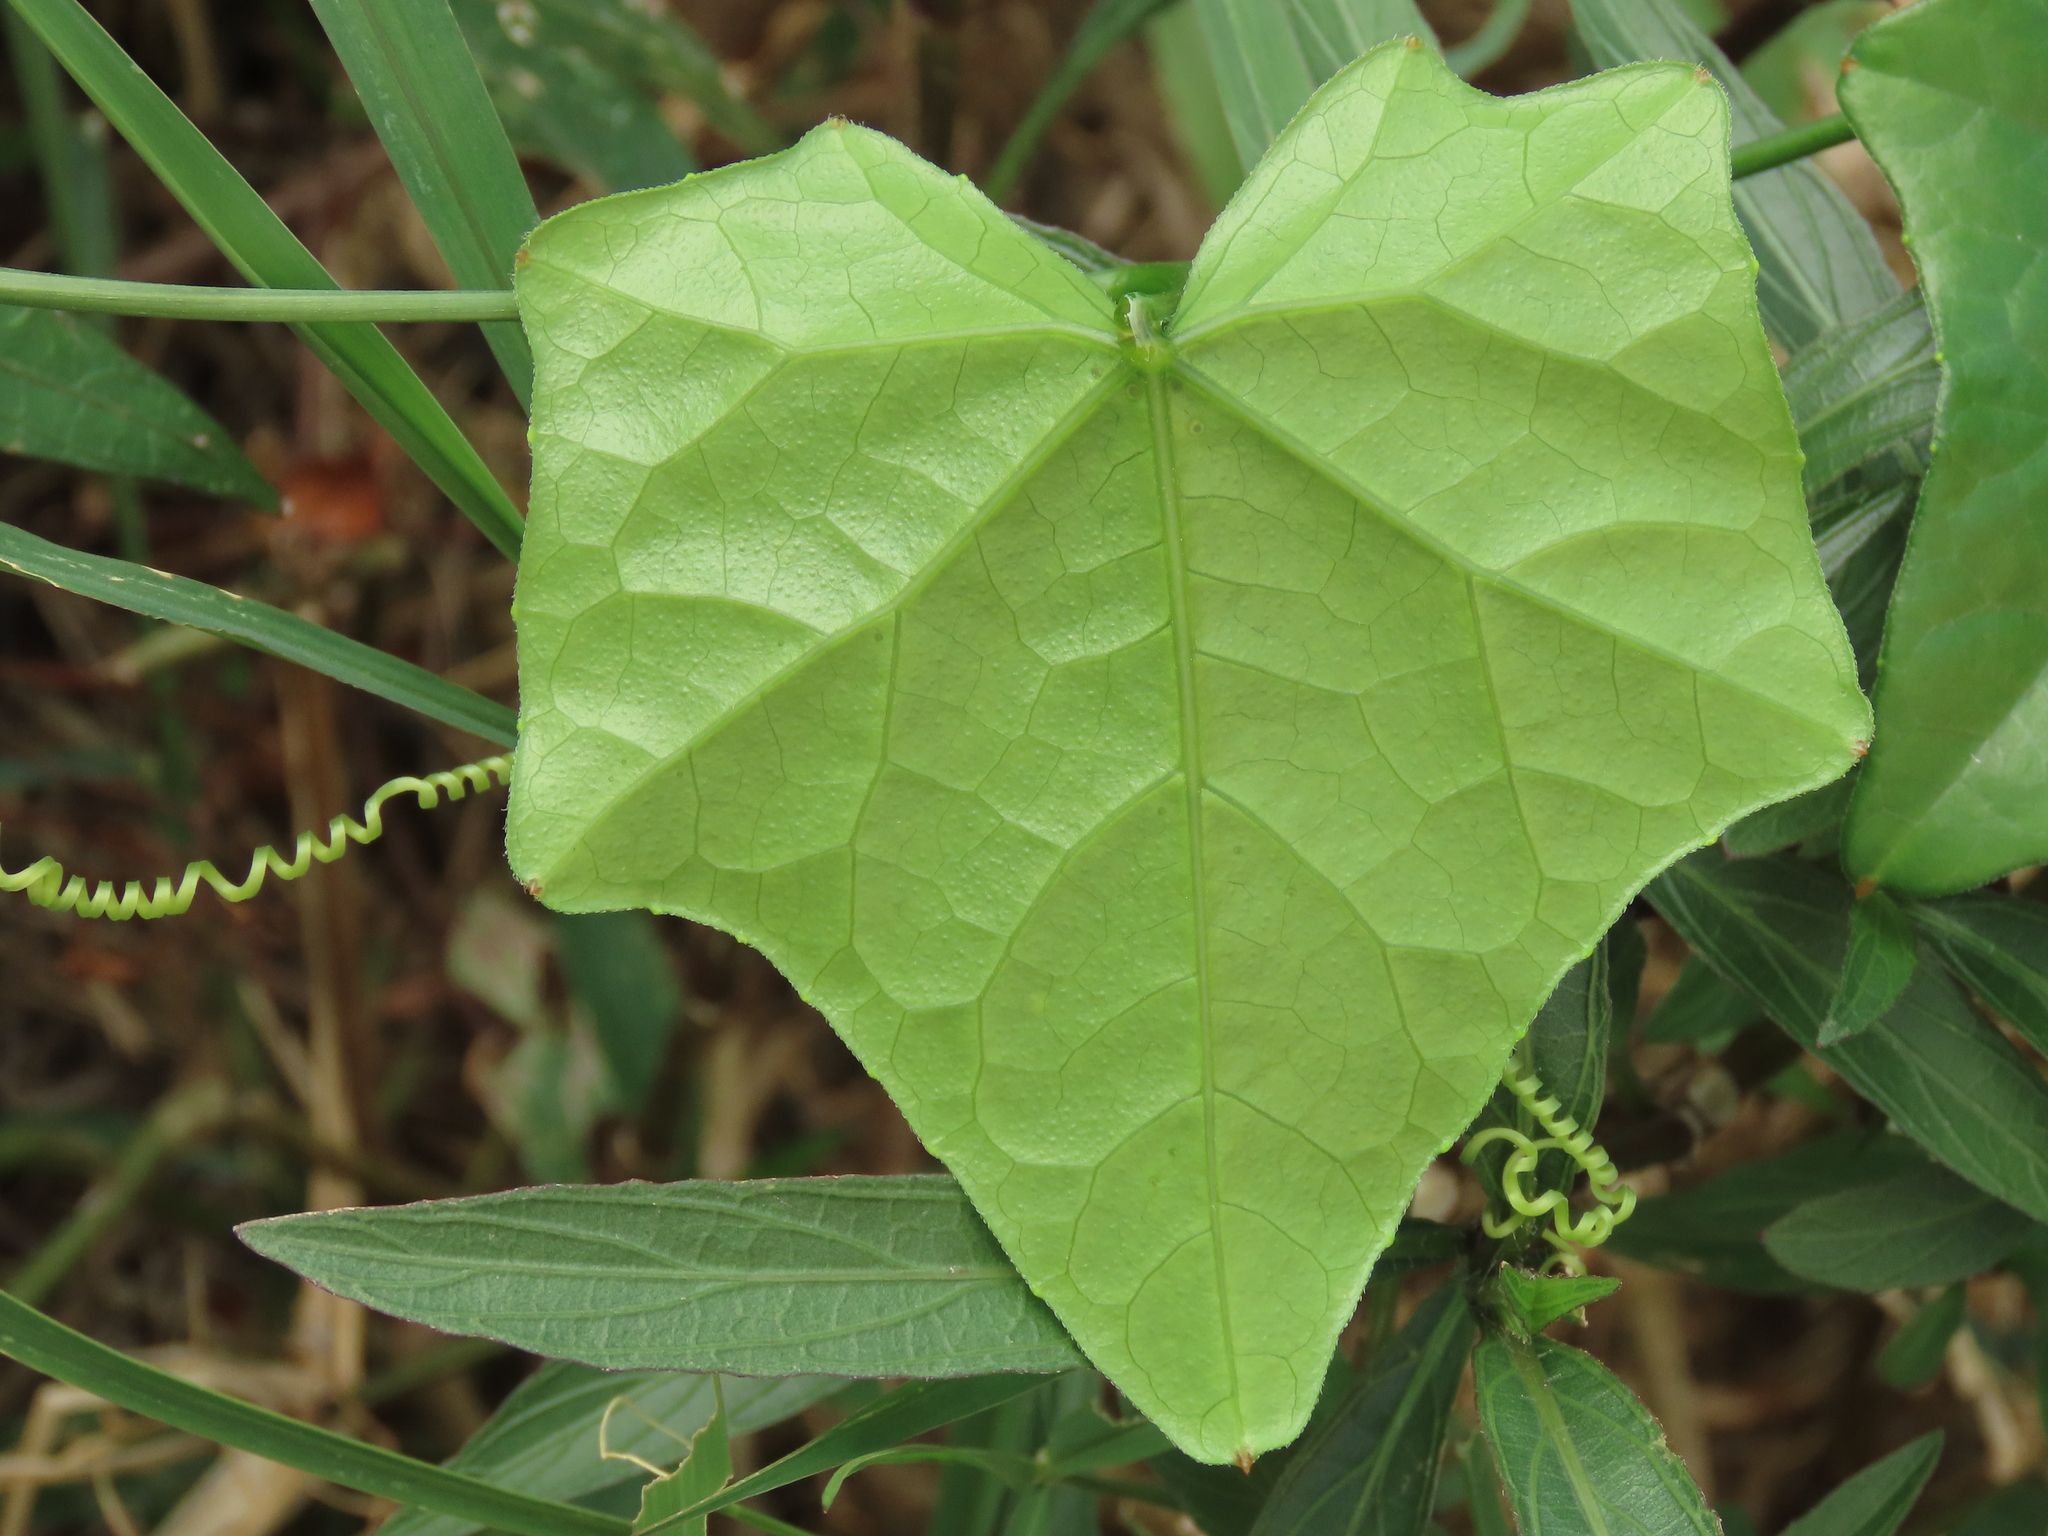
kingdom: Plantae
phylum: Tracheophyta
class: Magnoliopsida
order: Cucurbitales
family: Cucurbitaceae
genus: Coccinia
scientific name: Coccinia grandis
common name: Ivy gourd
